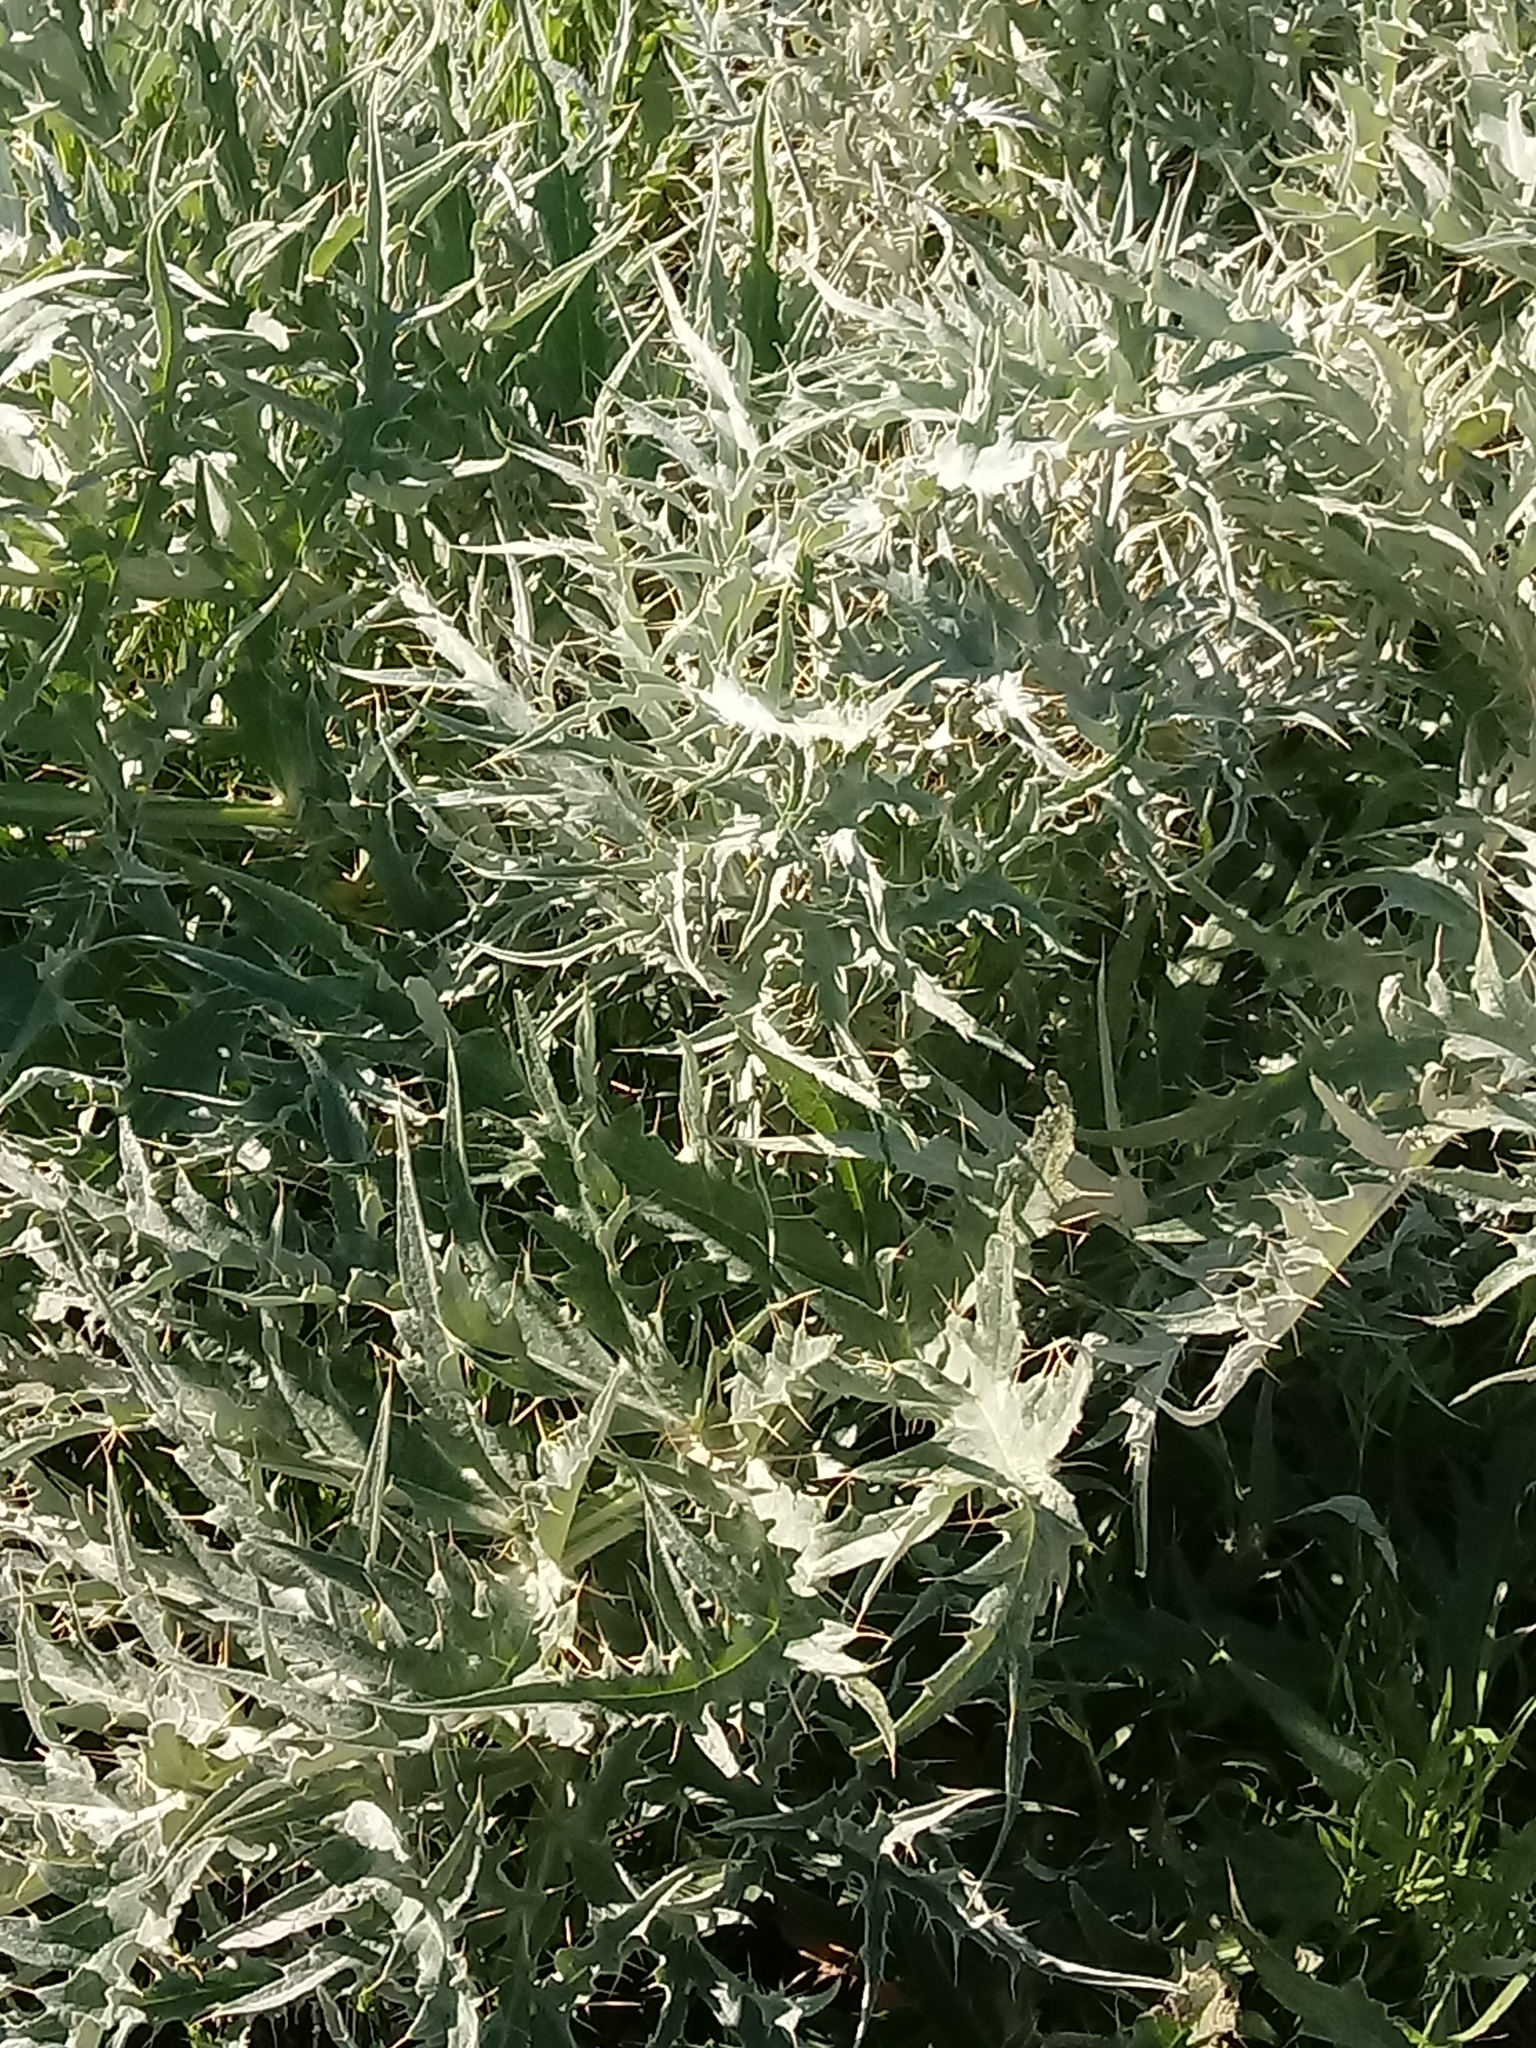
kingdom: Plantae
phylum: Tracheophyta
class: Magnoliopsida
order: Asterales
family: Asteraceae
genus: Cynara
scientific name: Cynara cardunculus
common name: Globe artichoke
